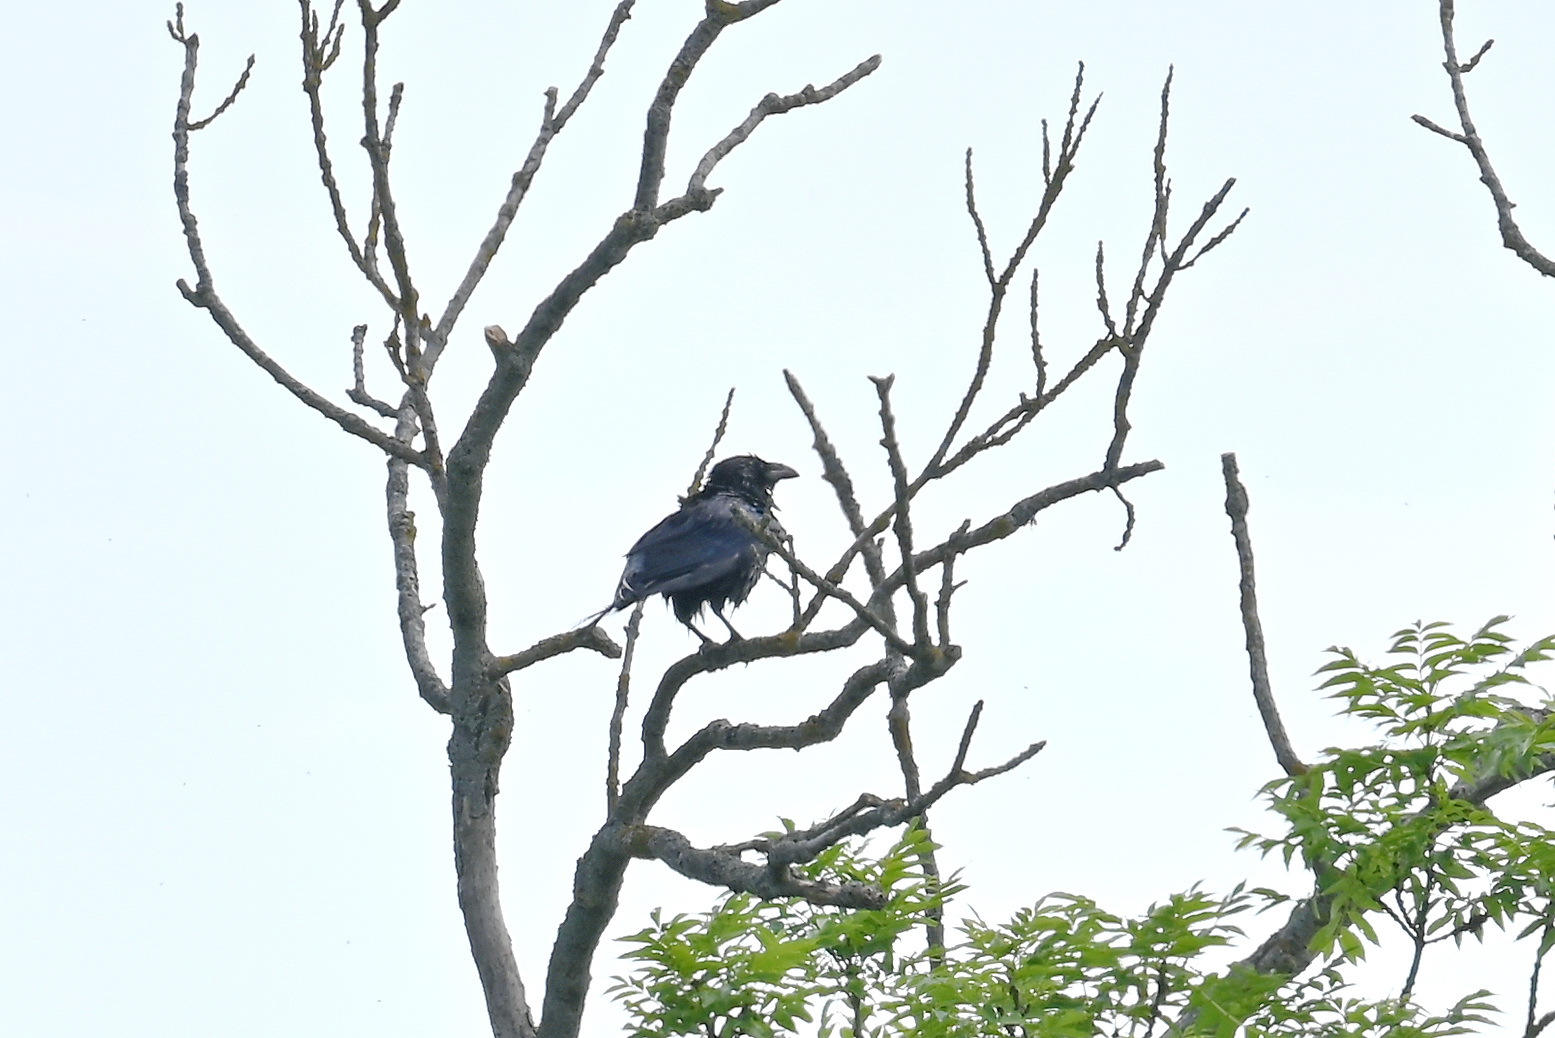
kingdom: Animalia
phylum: Chordata
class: Aves
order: Passeriformes
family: Corvidae
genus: Corvus
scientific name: Corvus cornix
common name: Hooded crow
